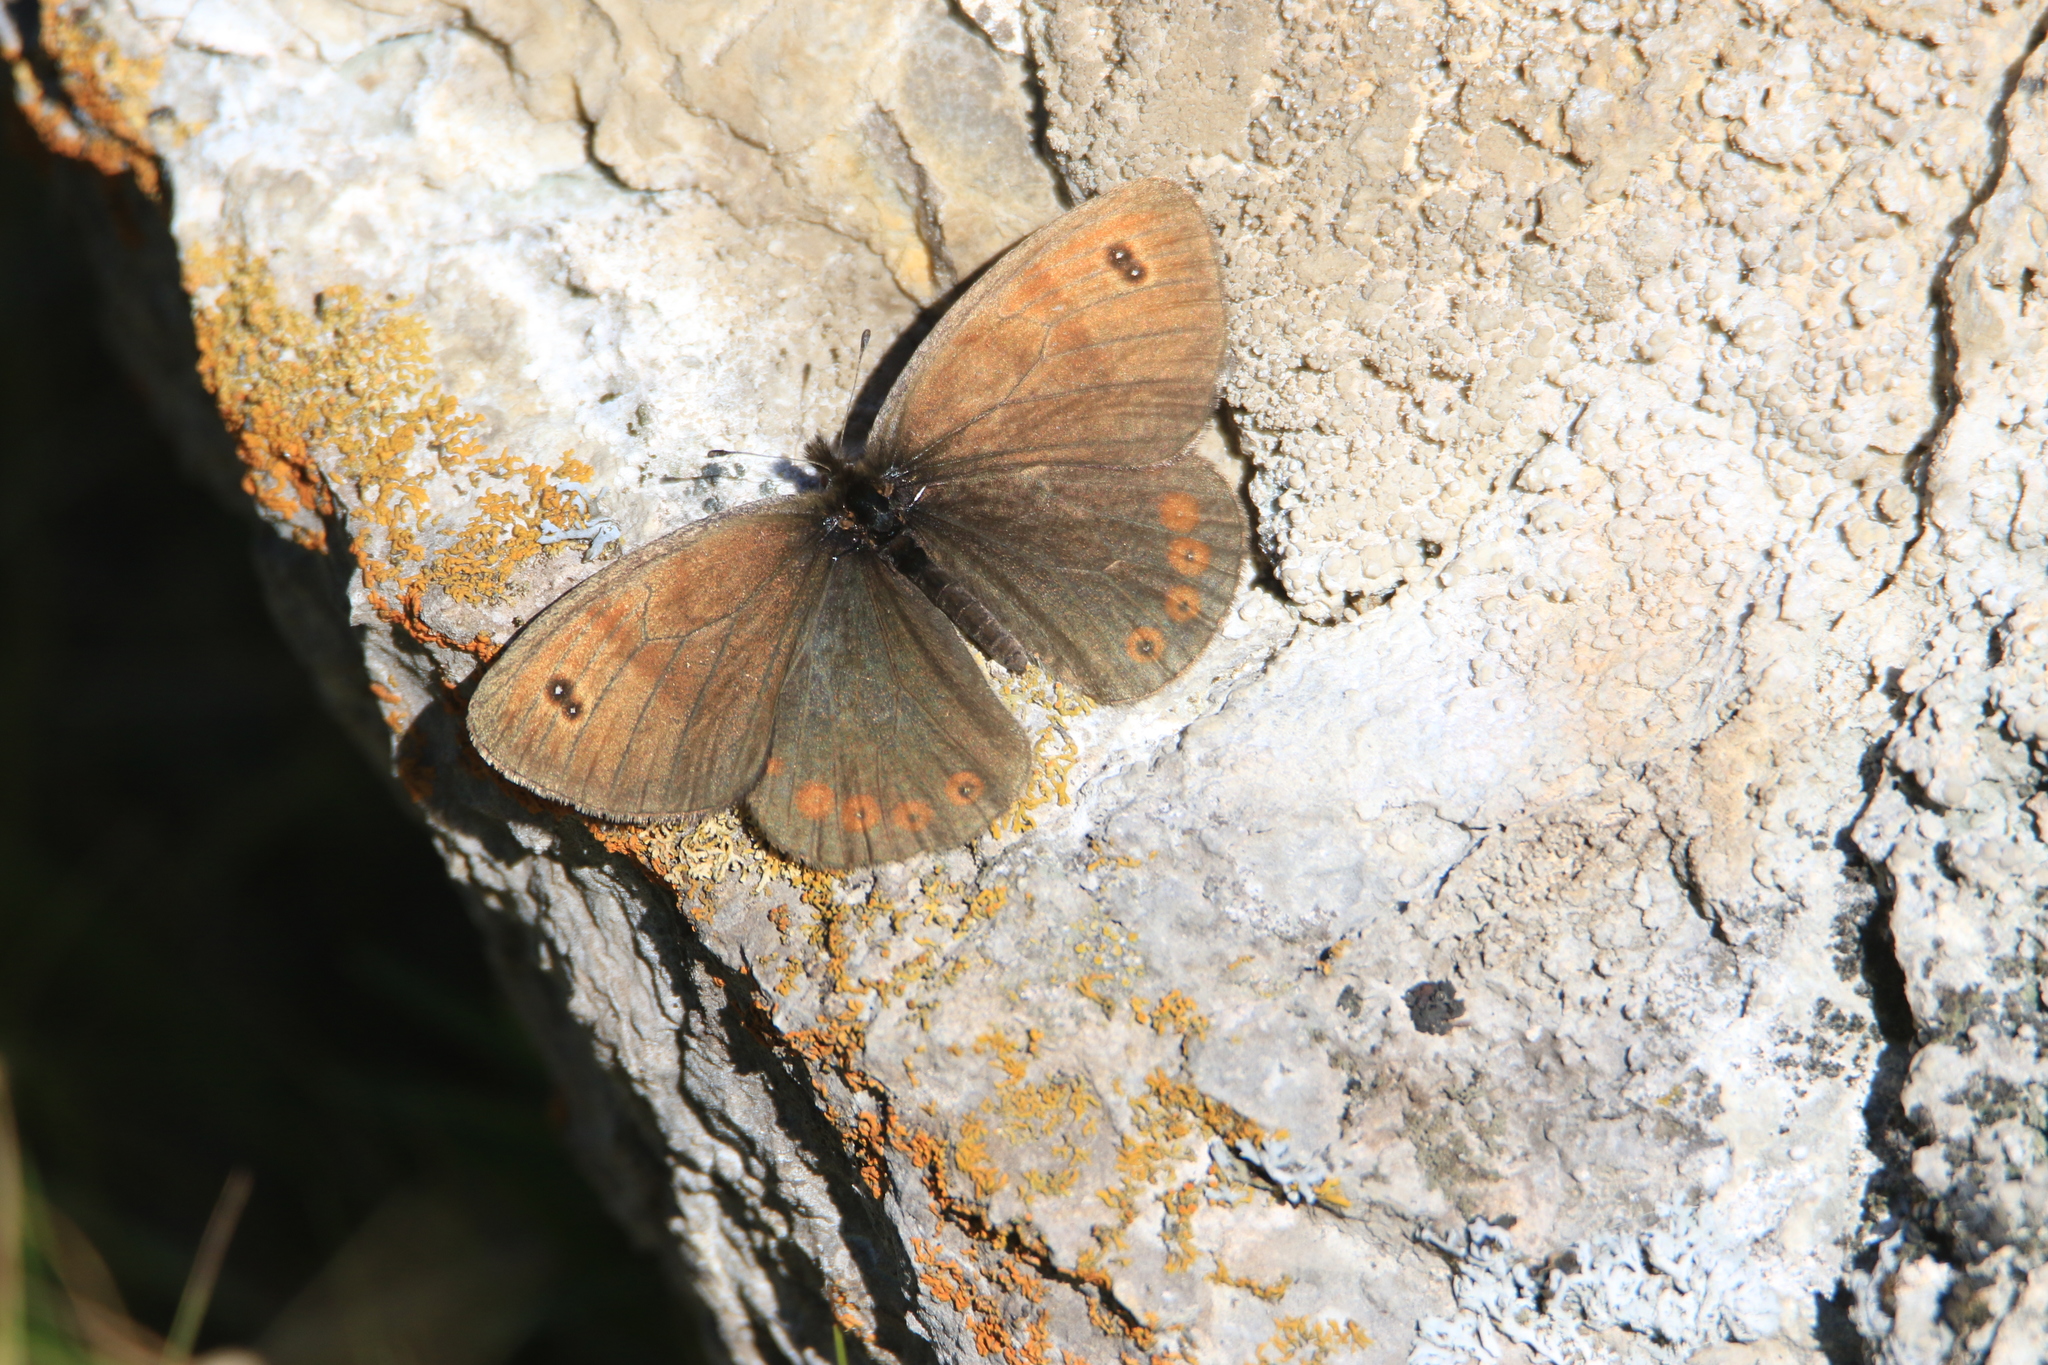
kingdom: Animalia
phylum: Arthropoda
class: Insecta
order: Lepidoptera
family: Nymphalidae
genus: Erebia
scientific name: Erebia Boeberia parmenio
